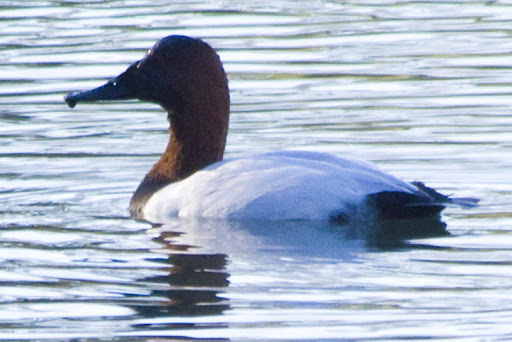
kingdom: Animalia
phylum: Chordata
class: Aves
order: Anseriformes
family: Anatidae
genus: Aythya
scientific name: Aythya valisineria
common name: Canvasback
